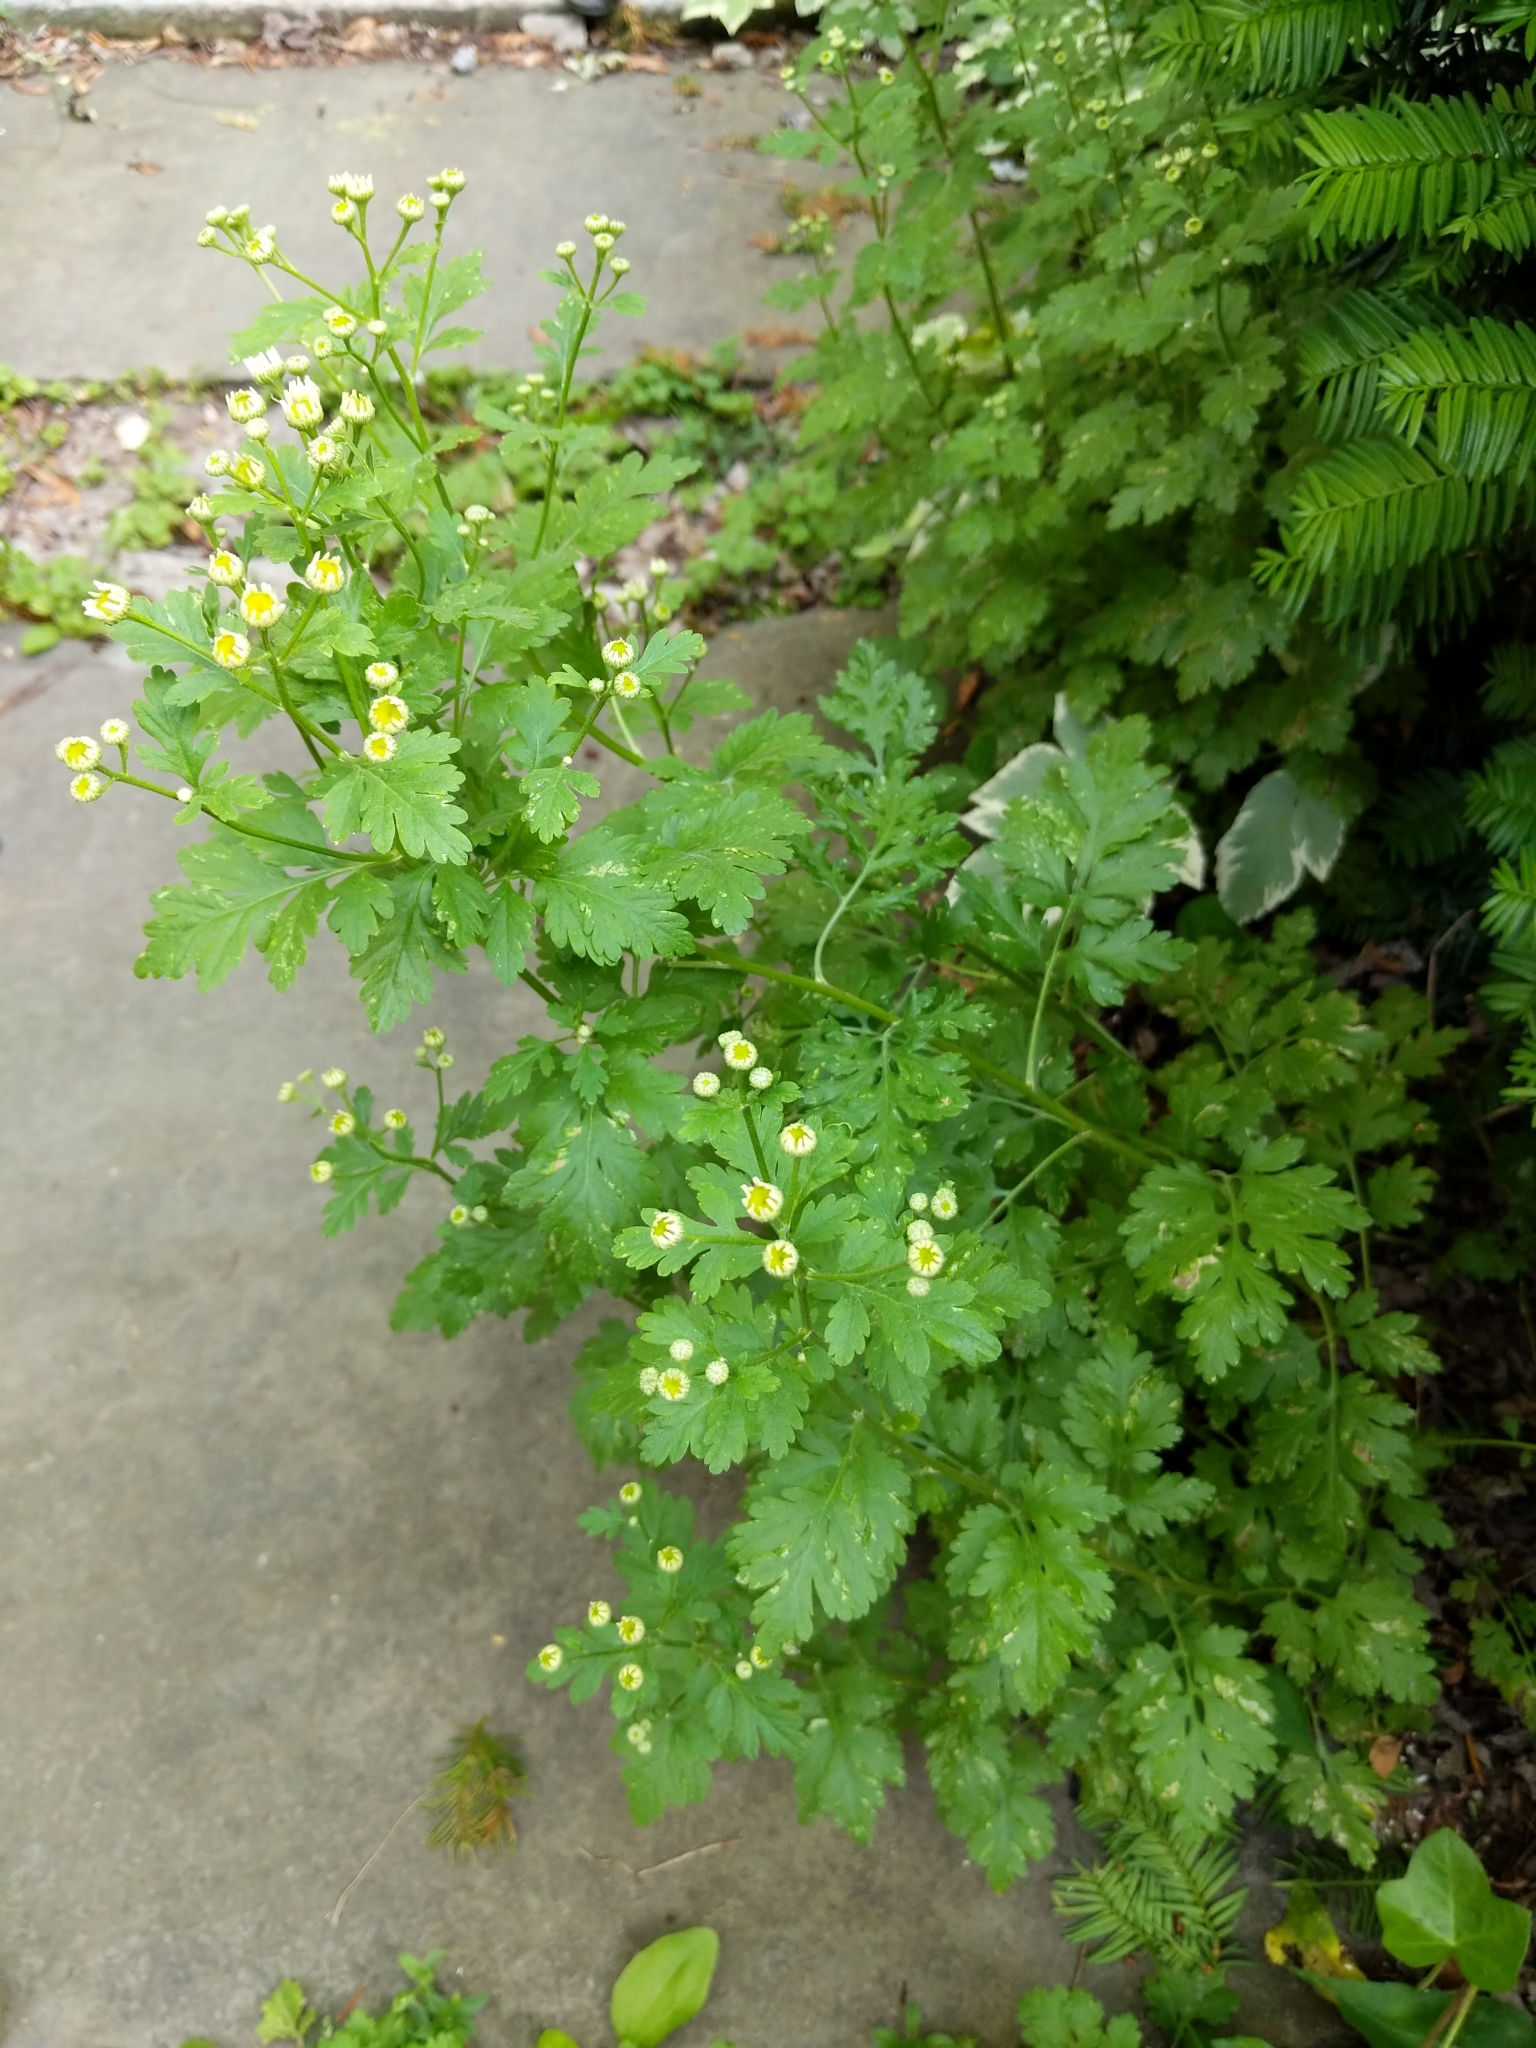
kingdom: Plantae
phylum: Tracheophyta
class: Magnoliopsida
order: Asterales
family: Asteraceae
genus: Tanacetum
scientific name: Tanacetum parthenium
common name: Feverfew
